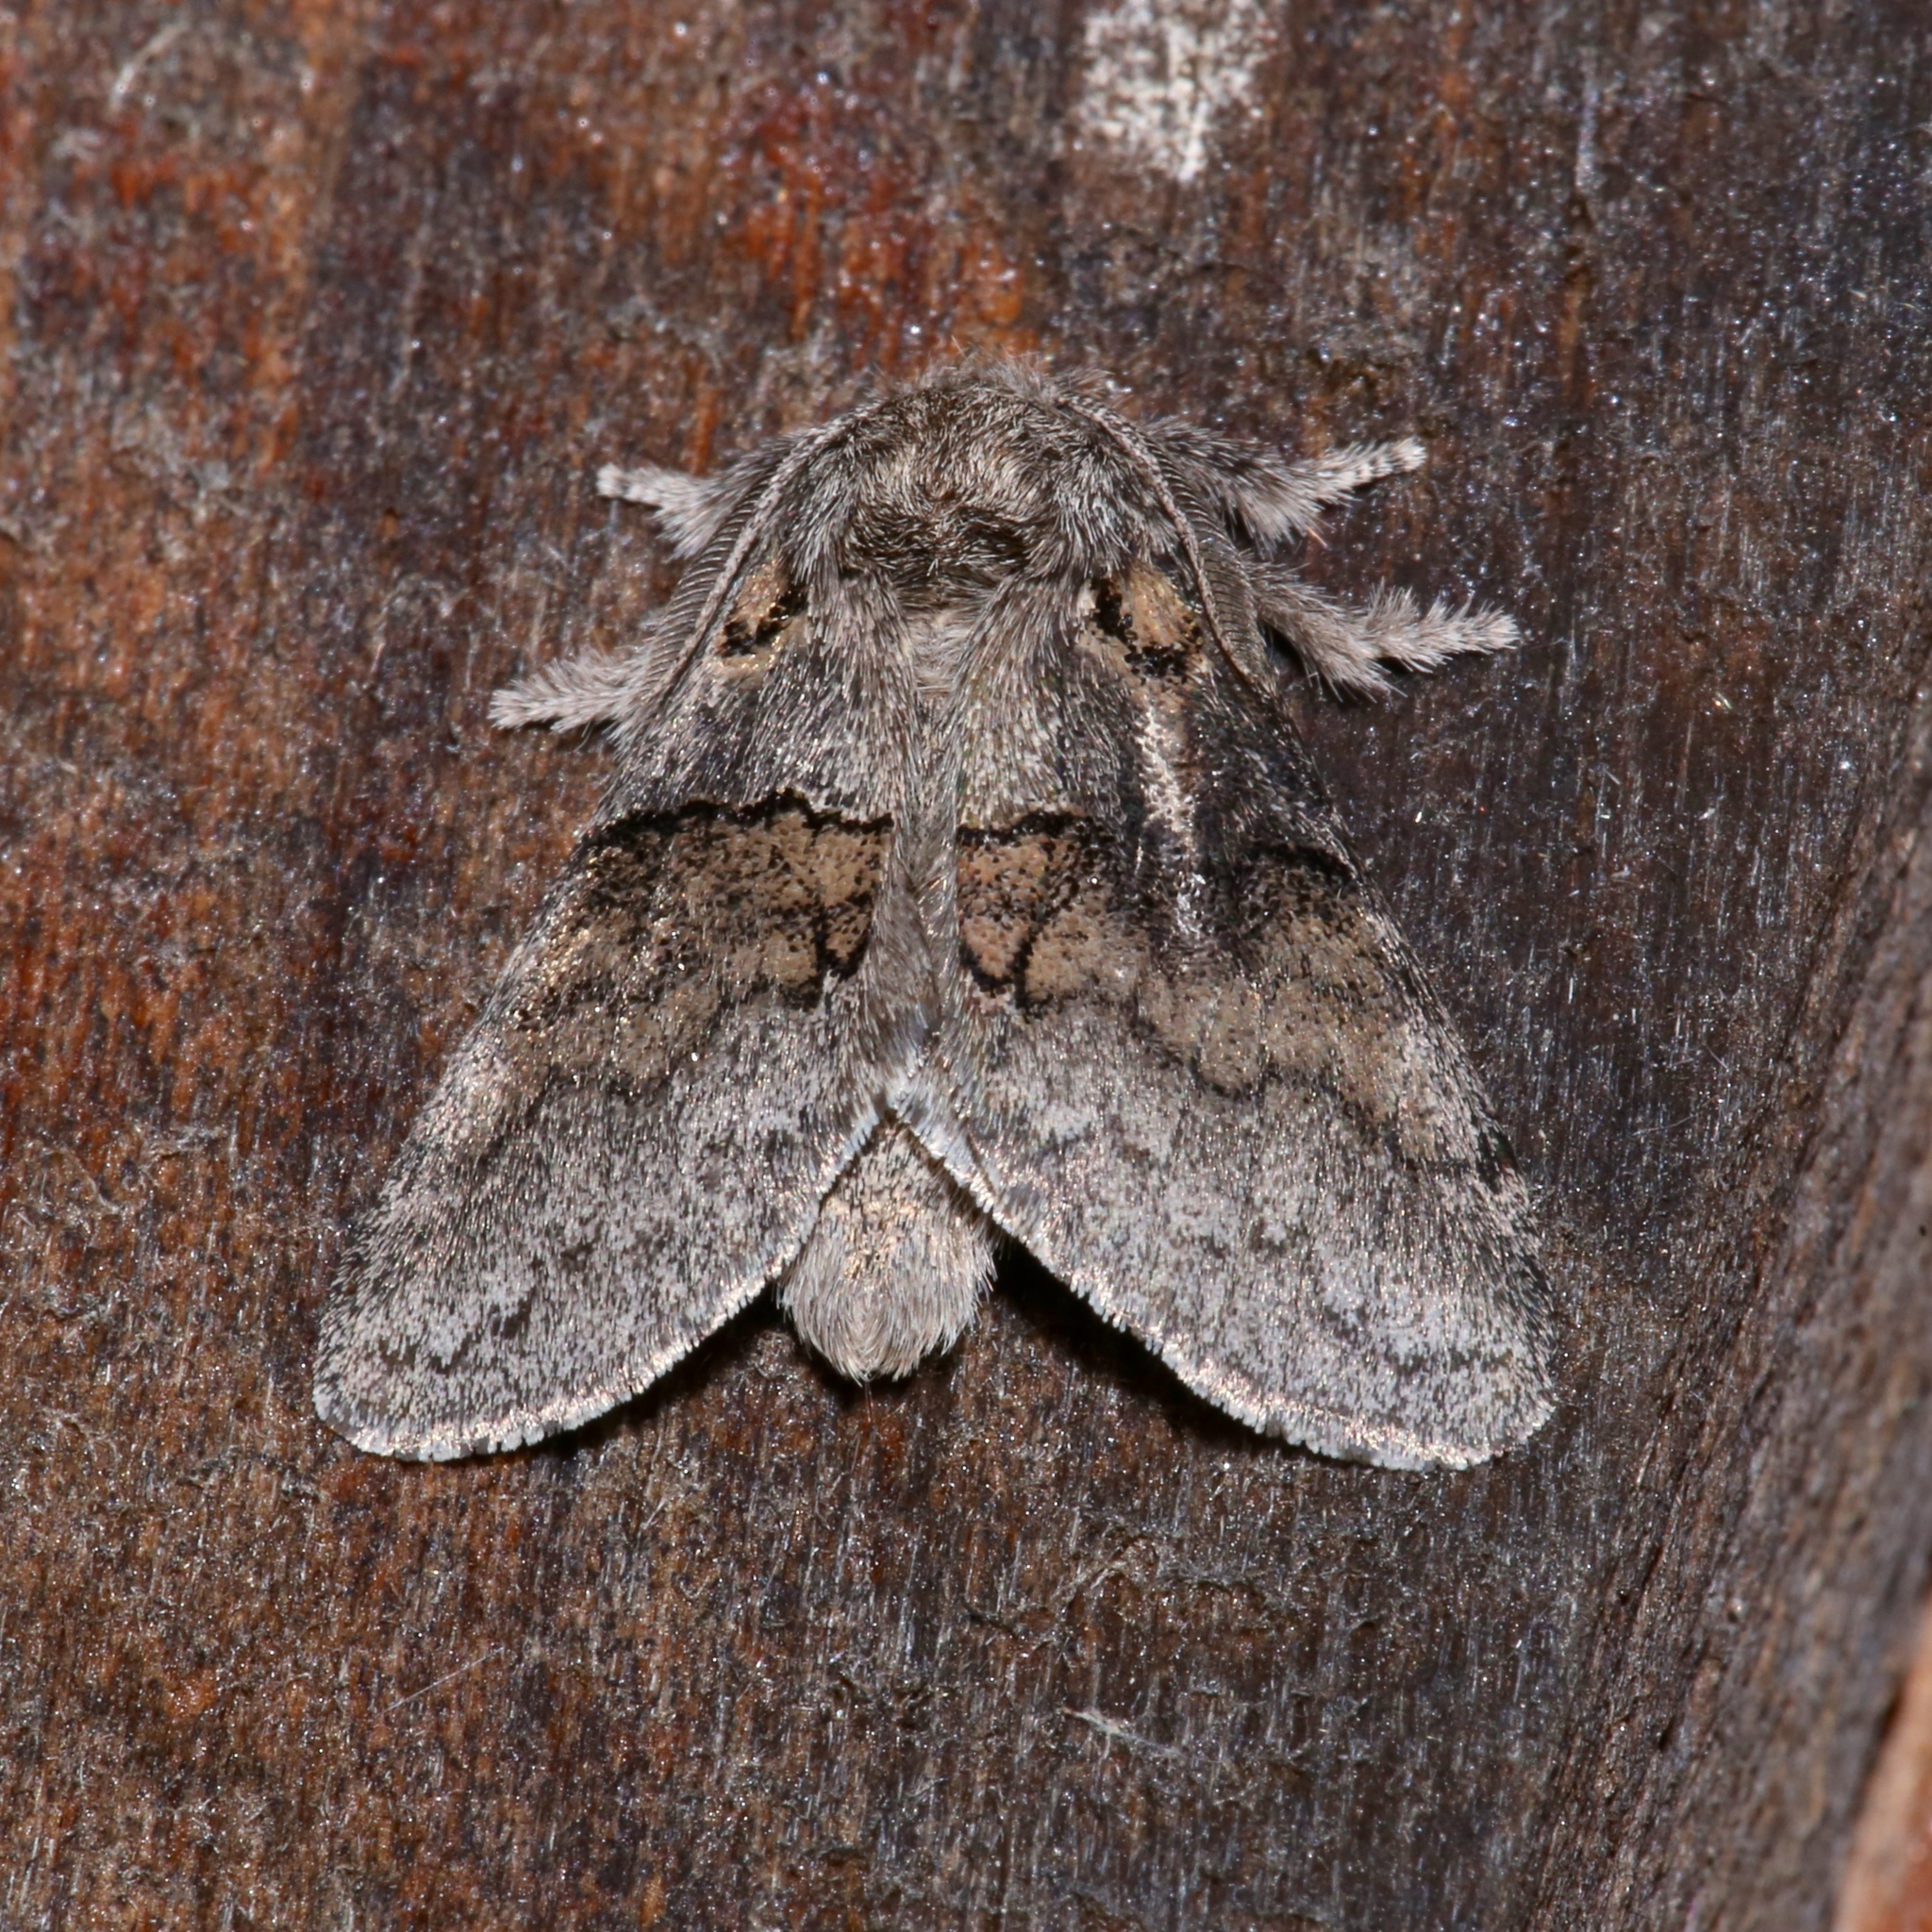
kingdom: Animalia
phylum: Arthropoda
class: Insecta
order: Lepidoptera
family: Notodontidae
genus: Gluphisia
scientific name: Gluphisia septentrionis
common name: Common gluphisia
